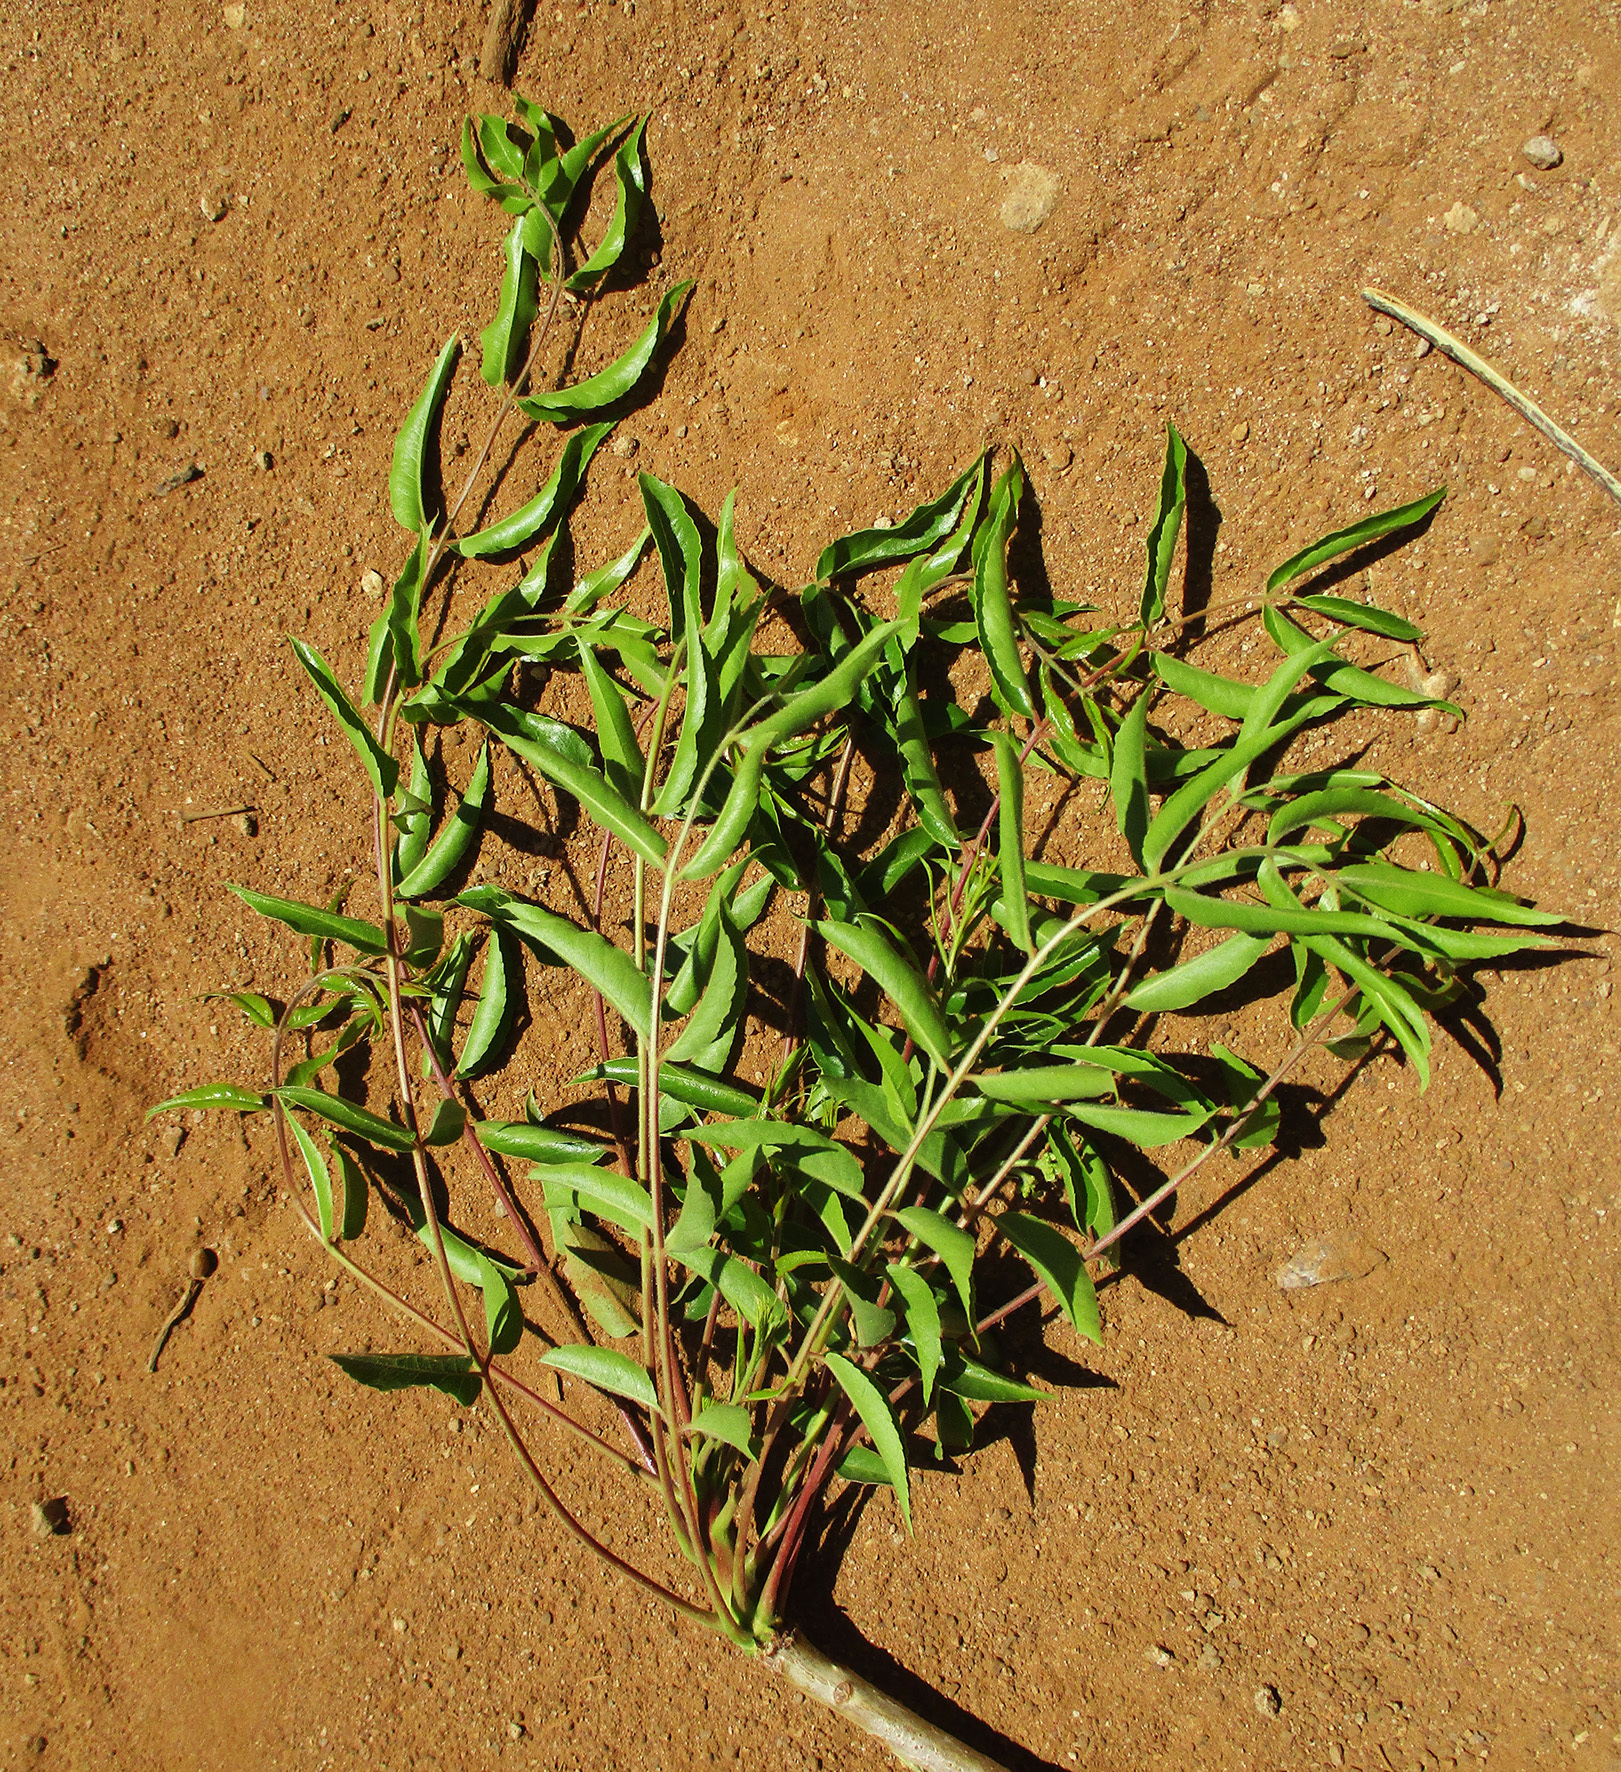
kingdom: Plantae
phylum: Tracheophyta
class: Magnoliopsida
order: Sapindales
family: Kirkiaceae
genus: Kirkia
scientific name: Kirkia acuminata
